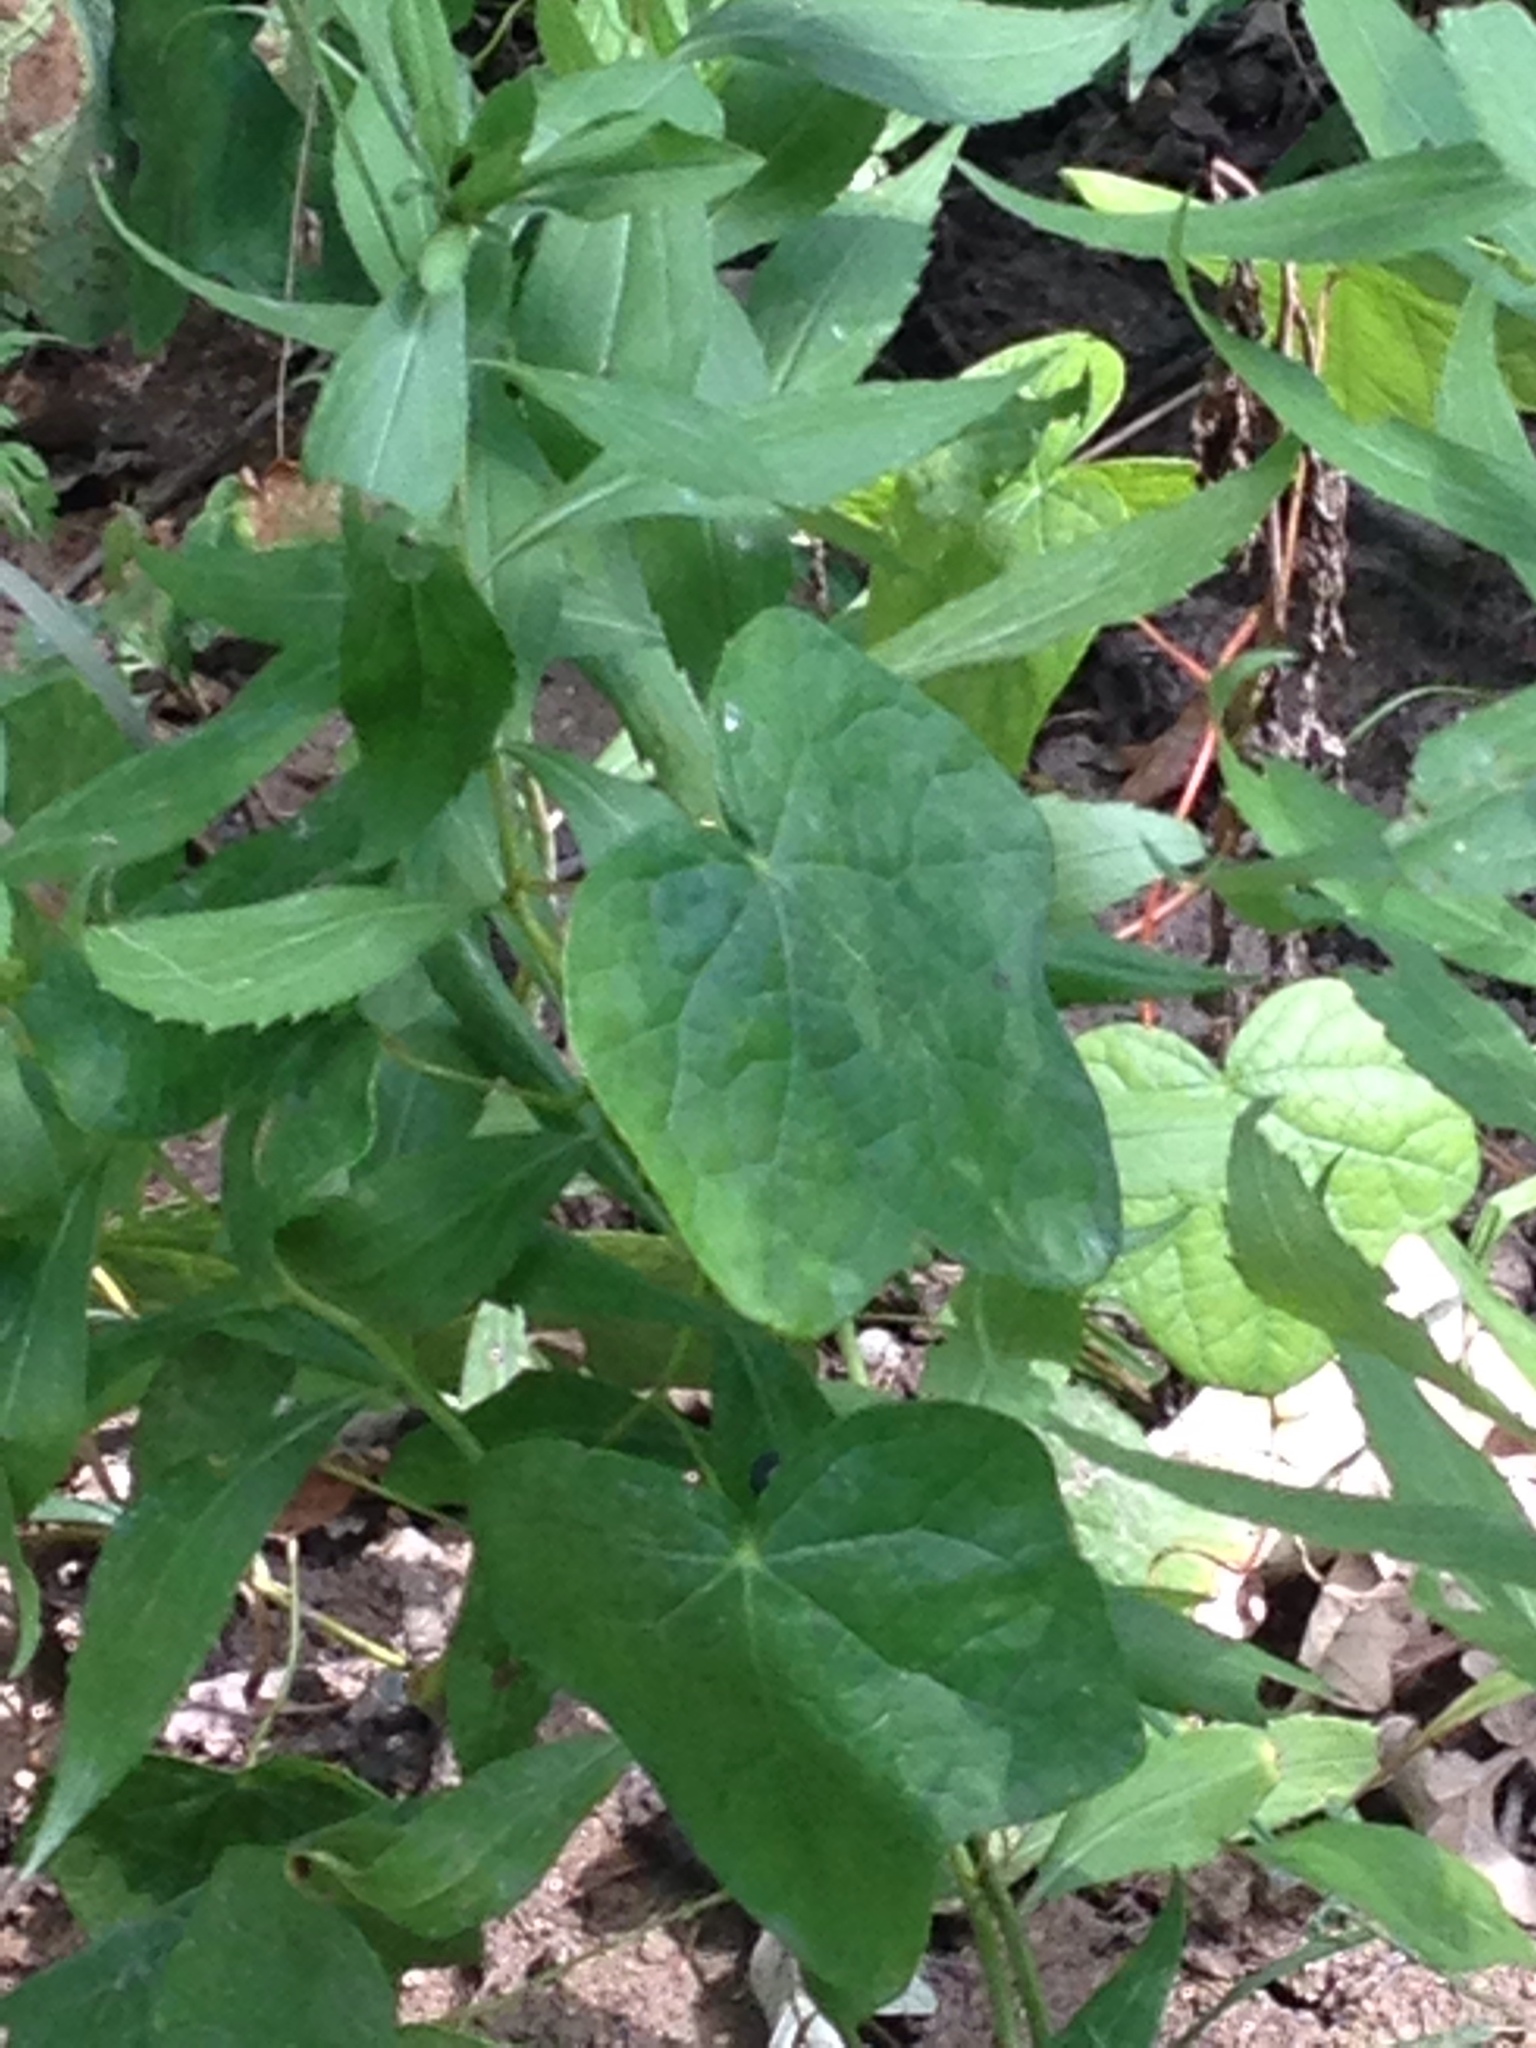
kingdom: Plantae
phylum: Tracheophyta
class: Magnoliopsida
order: Ranunculales
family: Menispermaceae
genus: Menispermum
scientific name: Menispermum canadense
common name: Moonseed
